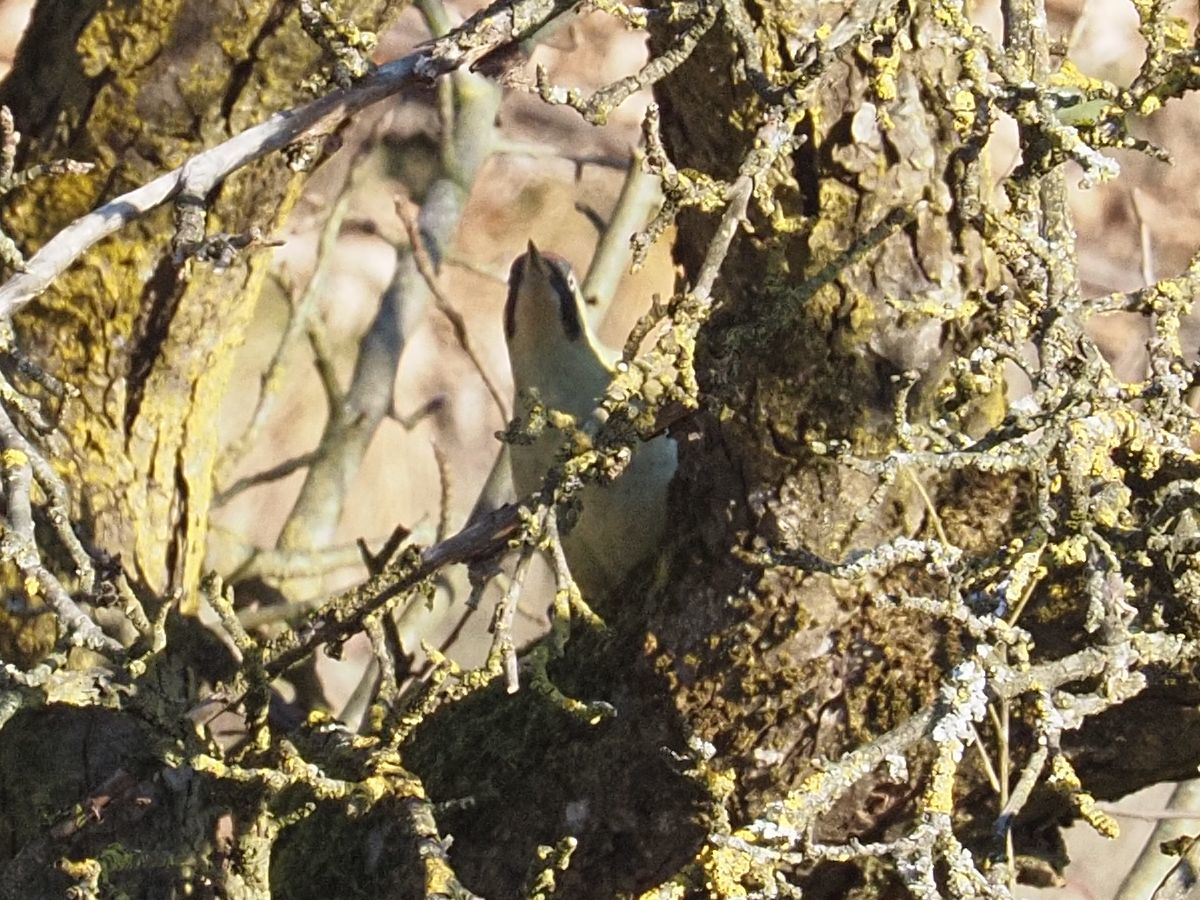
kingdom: Animalia
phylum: Chordata
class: Aves
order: Piciformes
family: Picidae
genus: Picus
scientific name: Picus viridis
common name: European green woodpecker
